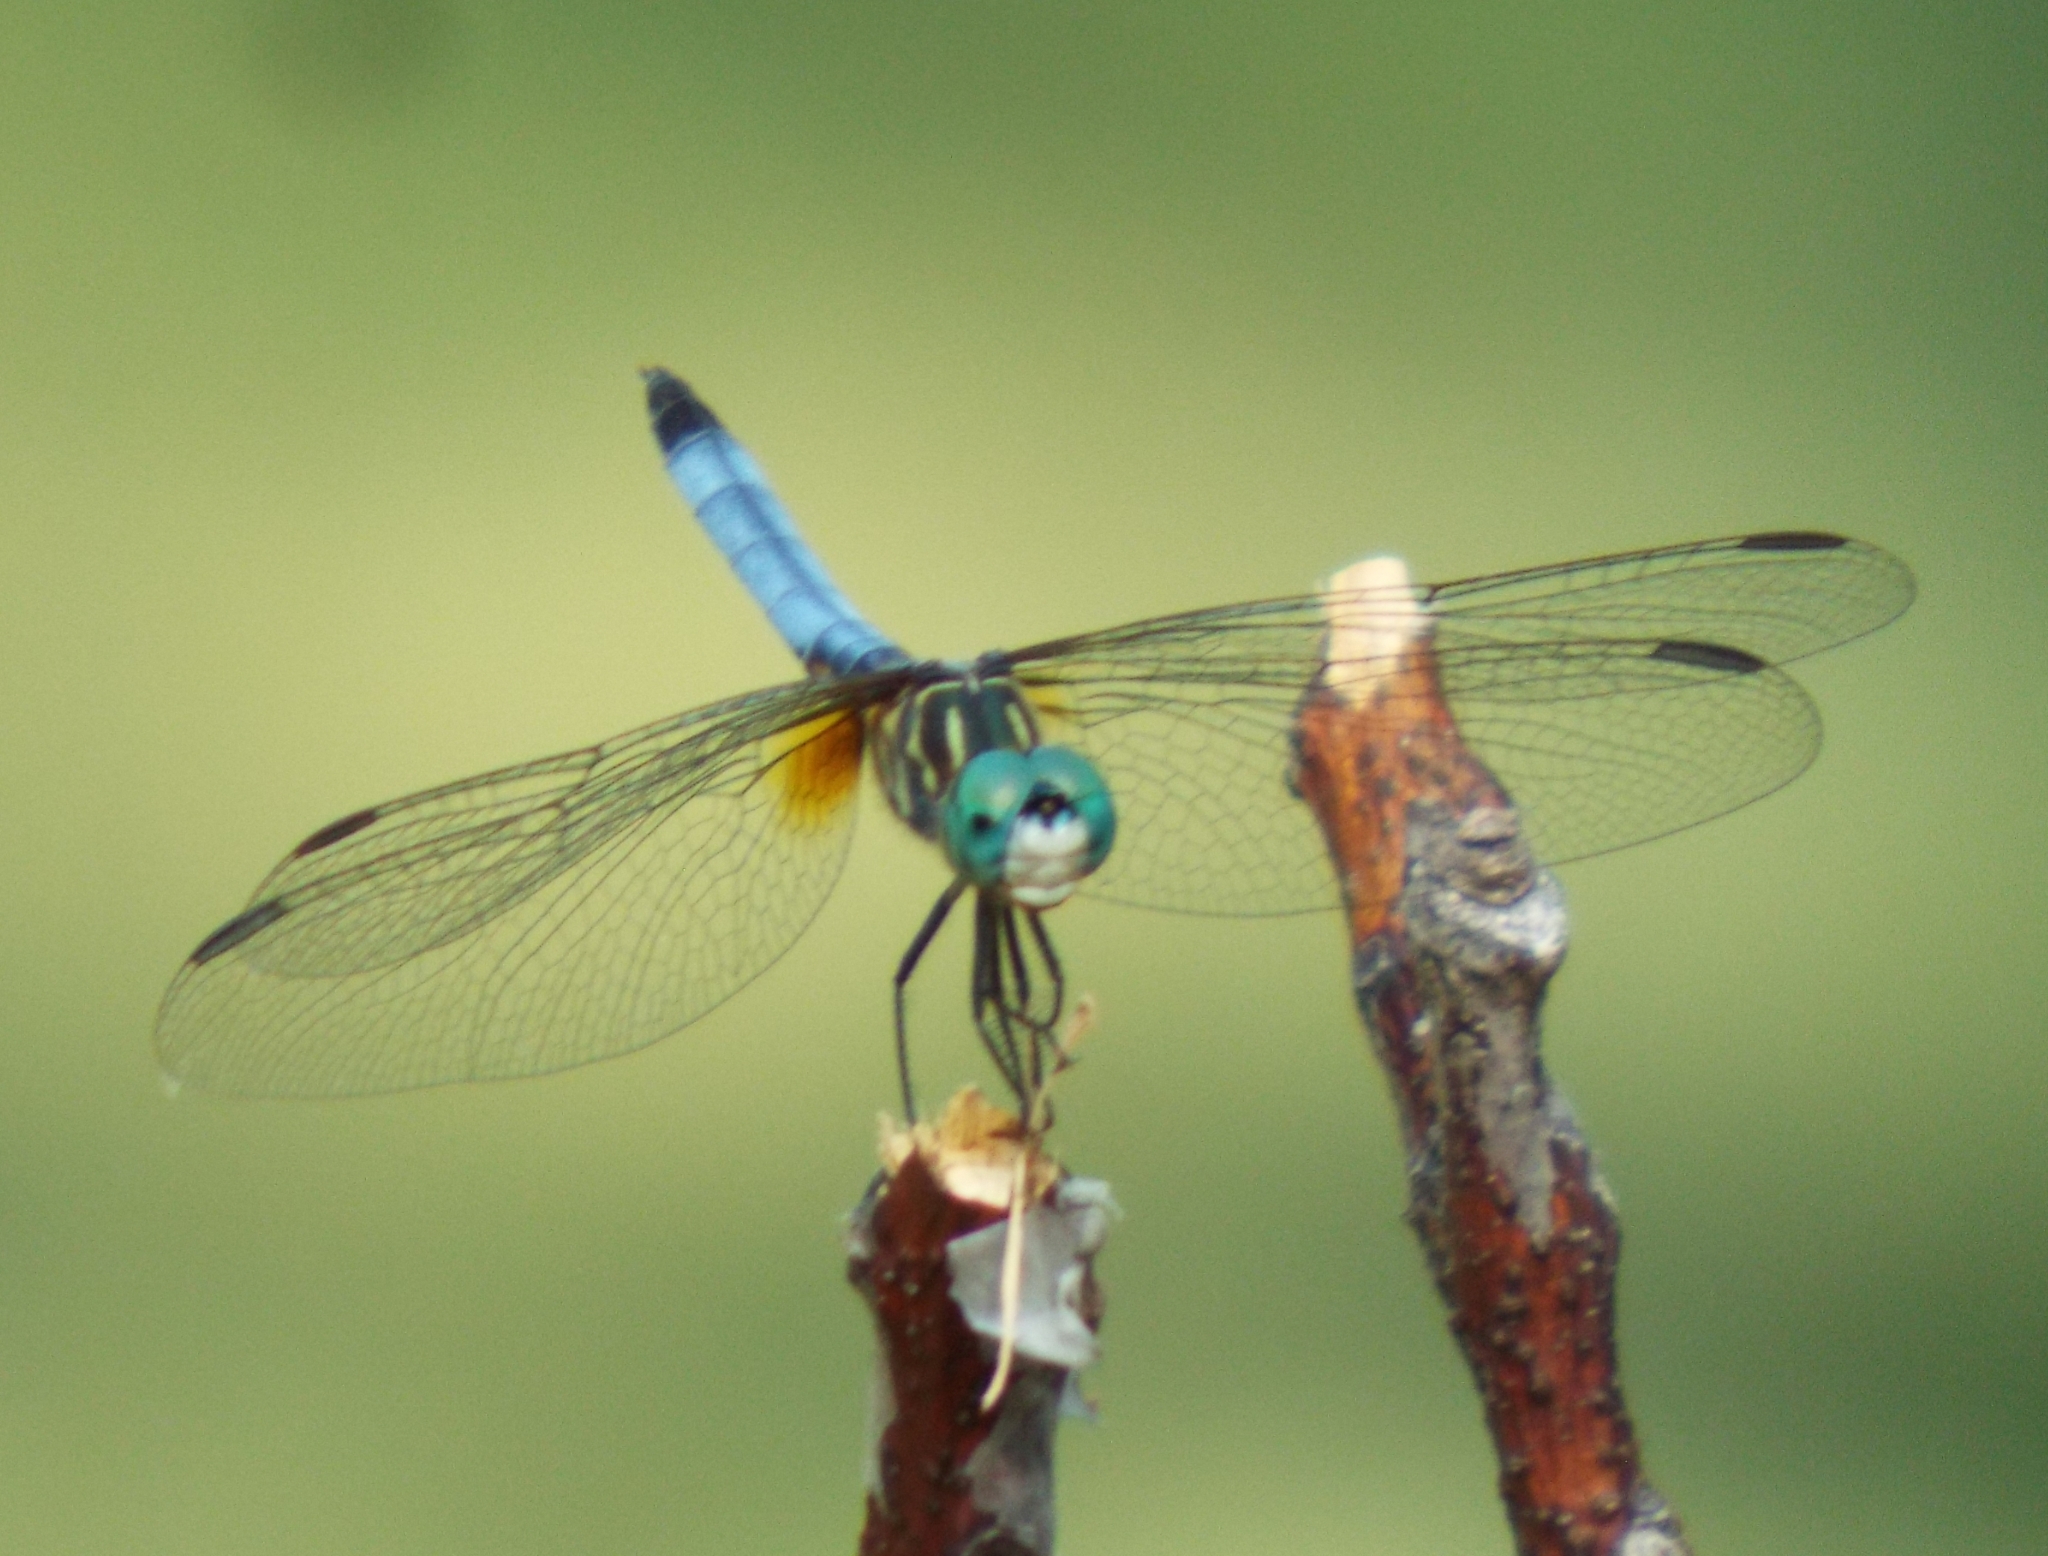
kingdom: Animalia
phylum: Arthropoda
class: Insecta
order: Odonata
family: Libellulidae
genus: Pachydiplax
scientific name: Pachydiplax longipennis
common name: Blue dasher
